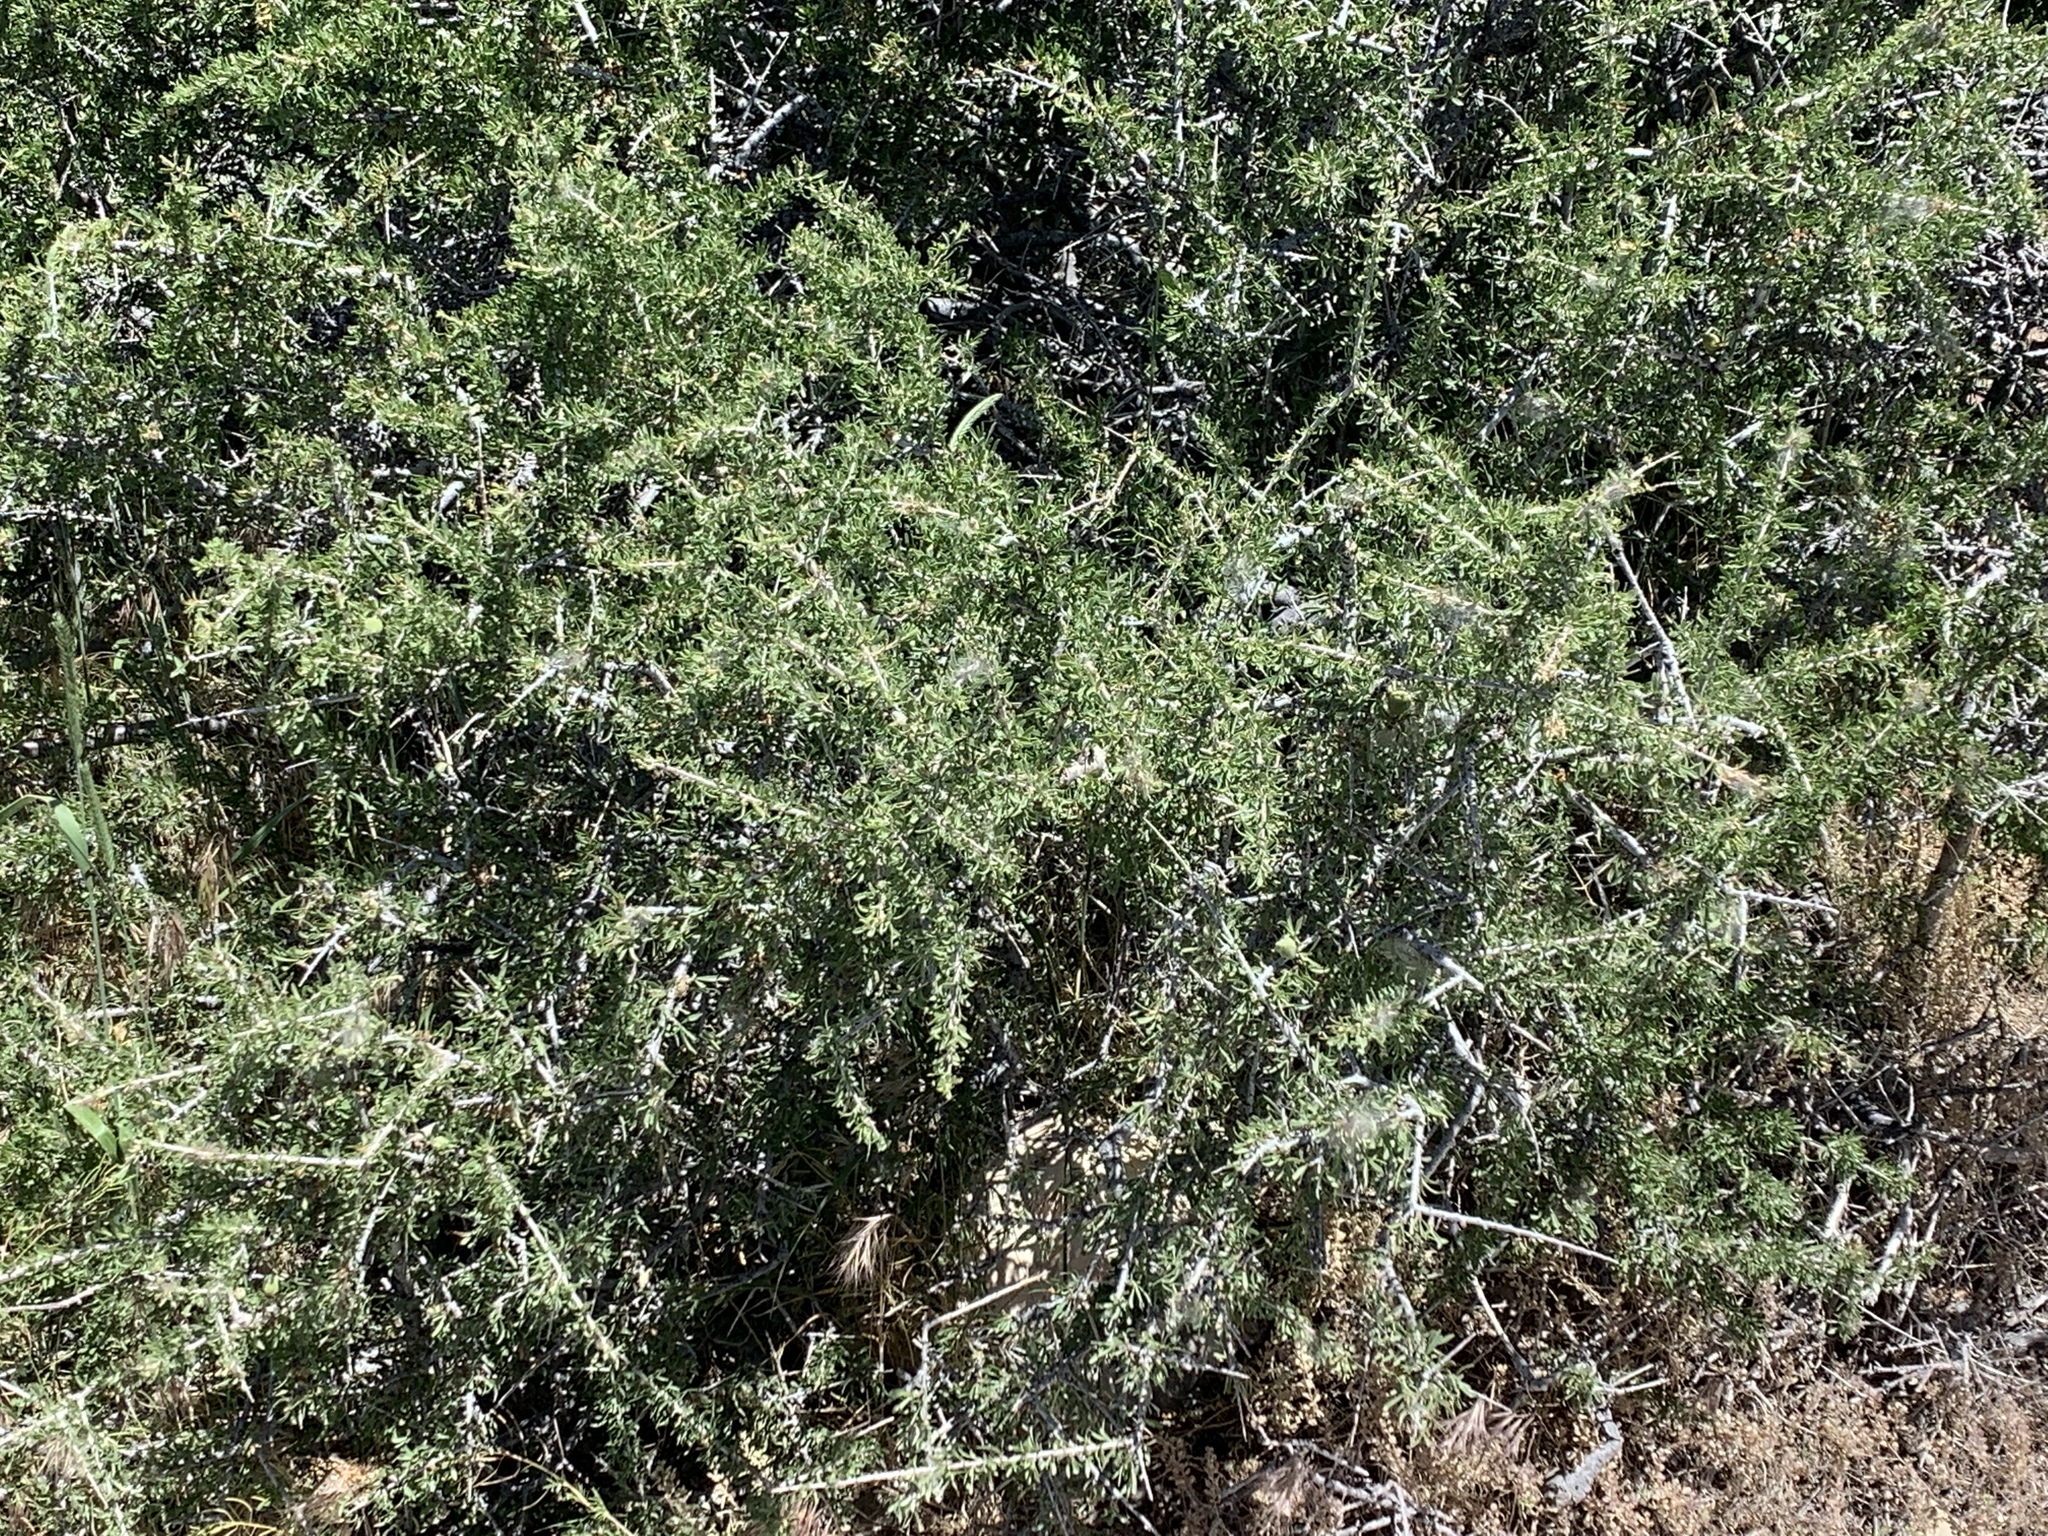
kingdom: Plantae
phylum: Tracheophyta
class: Magnoliopsida
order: Rosales
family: Rosaceae
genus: Prunus
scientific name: Prunus fasciculata
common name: Desert almond
